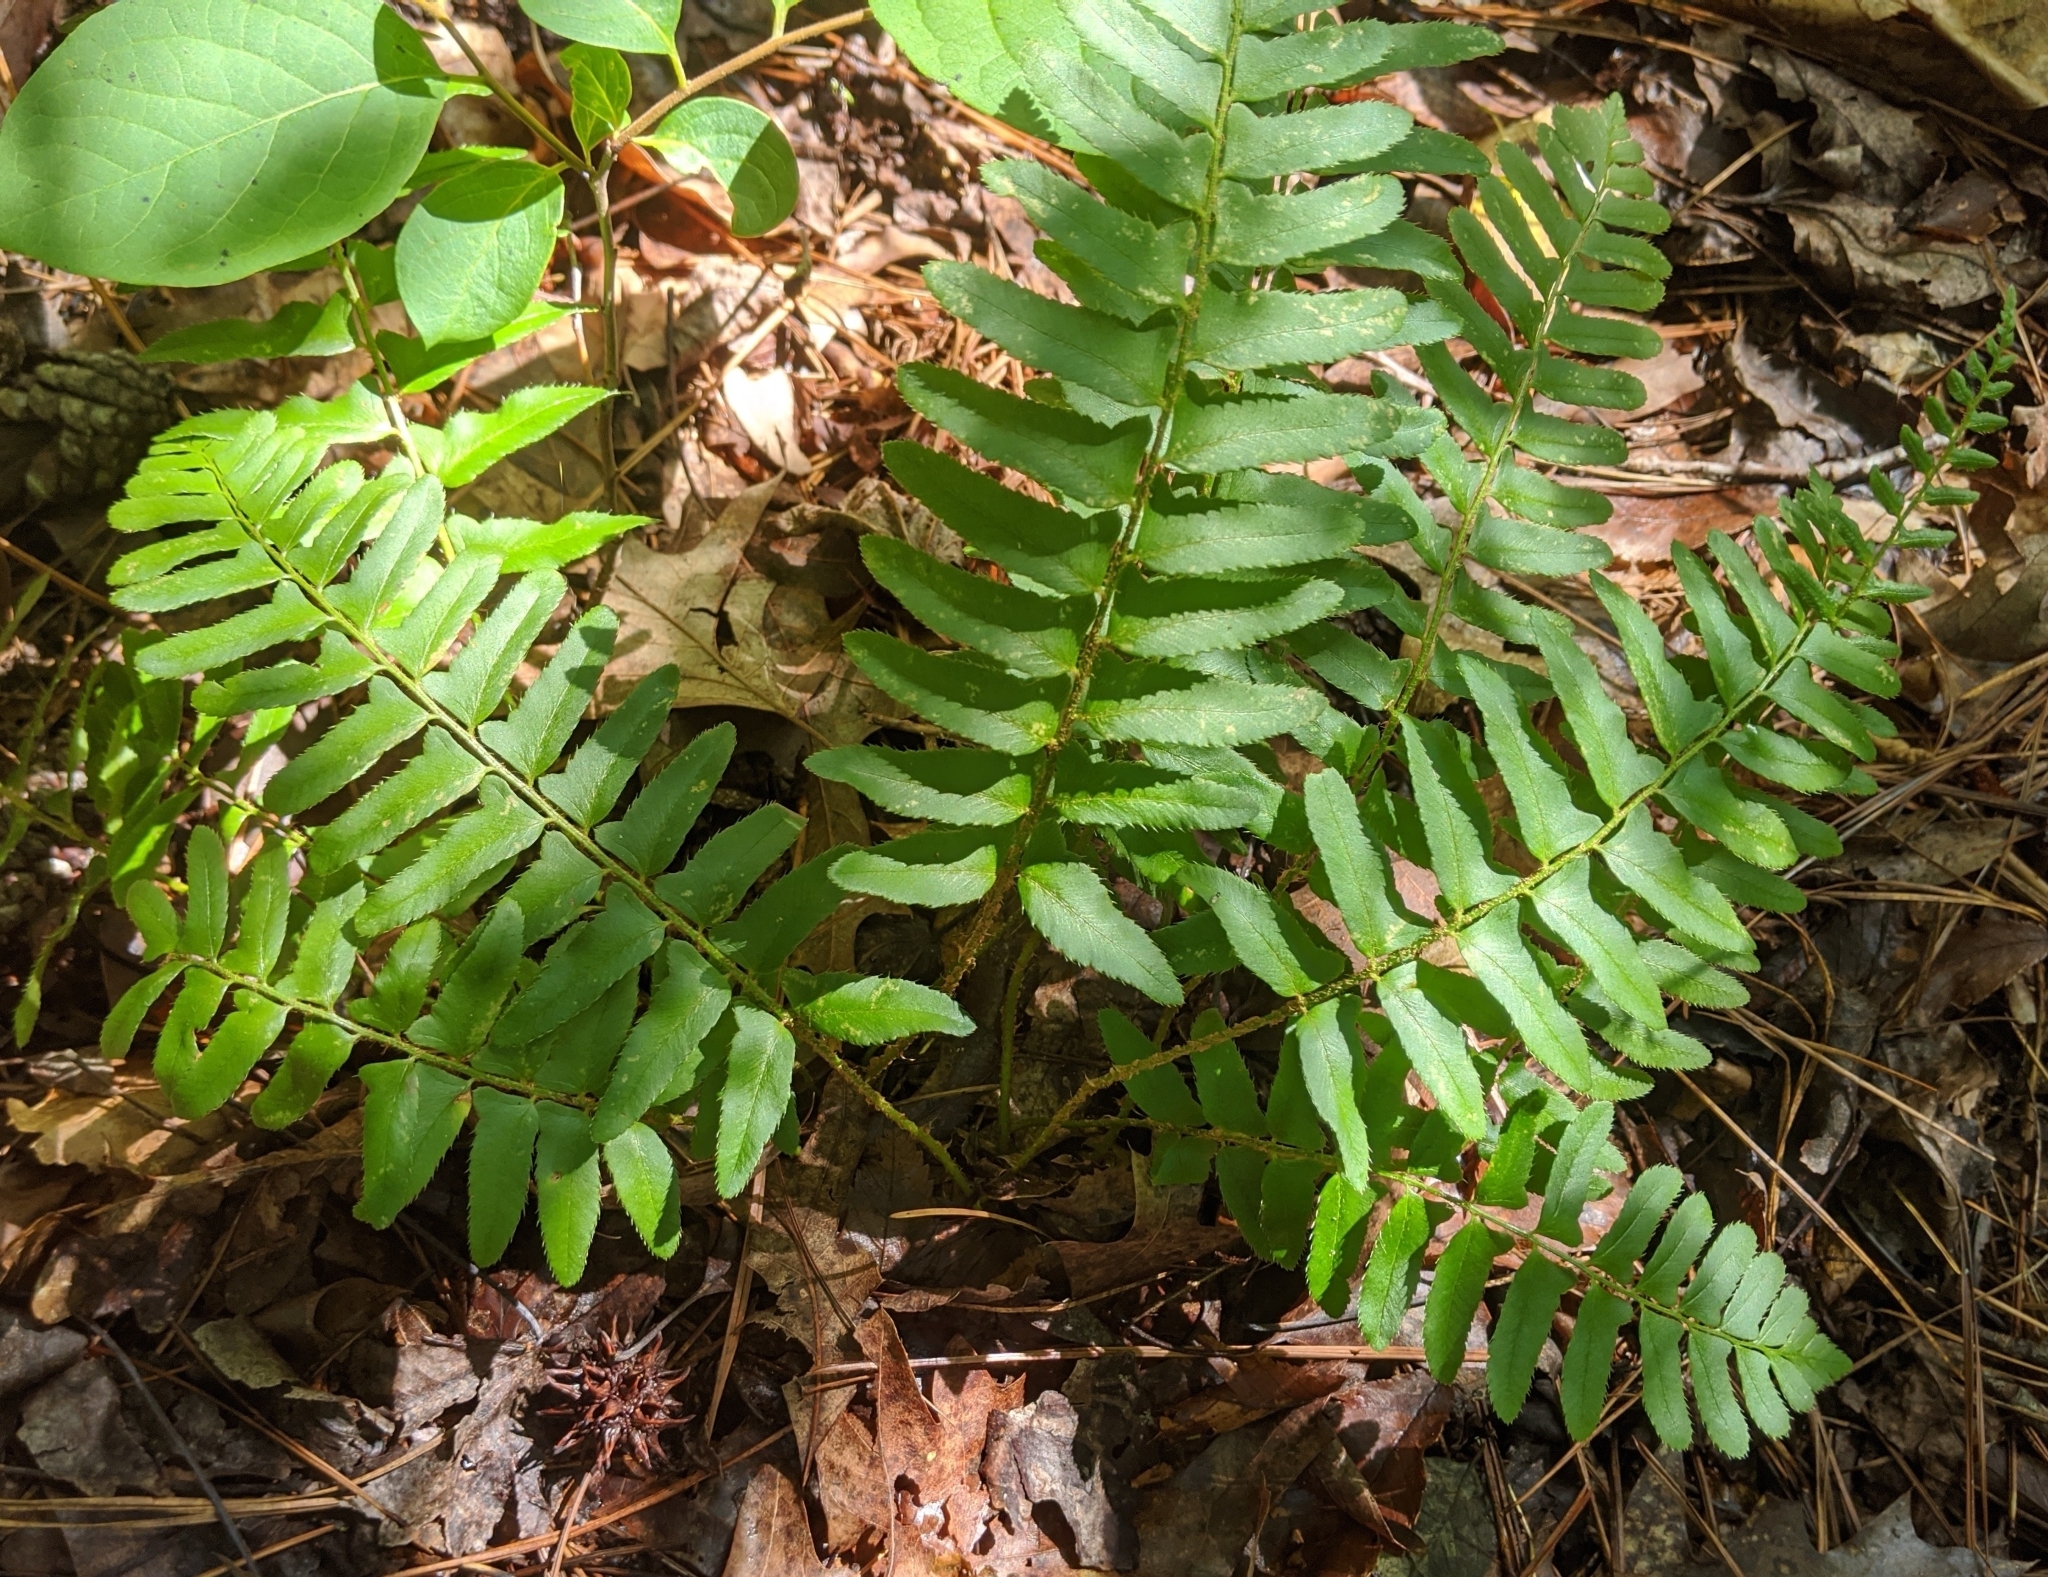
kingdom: Plantae
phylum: Tracheophyta
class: Polypodiopsida
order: Polypodiales
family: Dryopteridaceae
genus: Polystichum
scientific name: Polystichum acrostichoides
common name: Christmas fern
